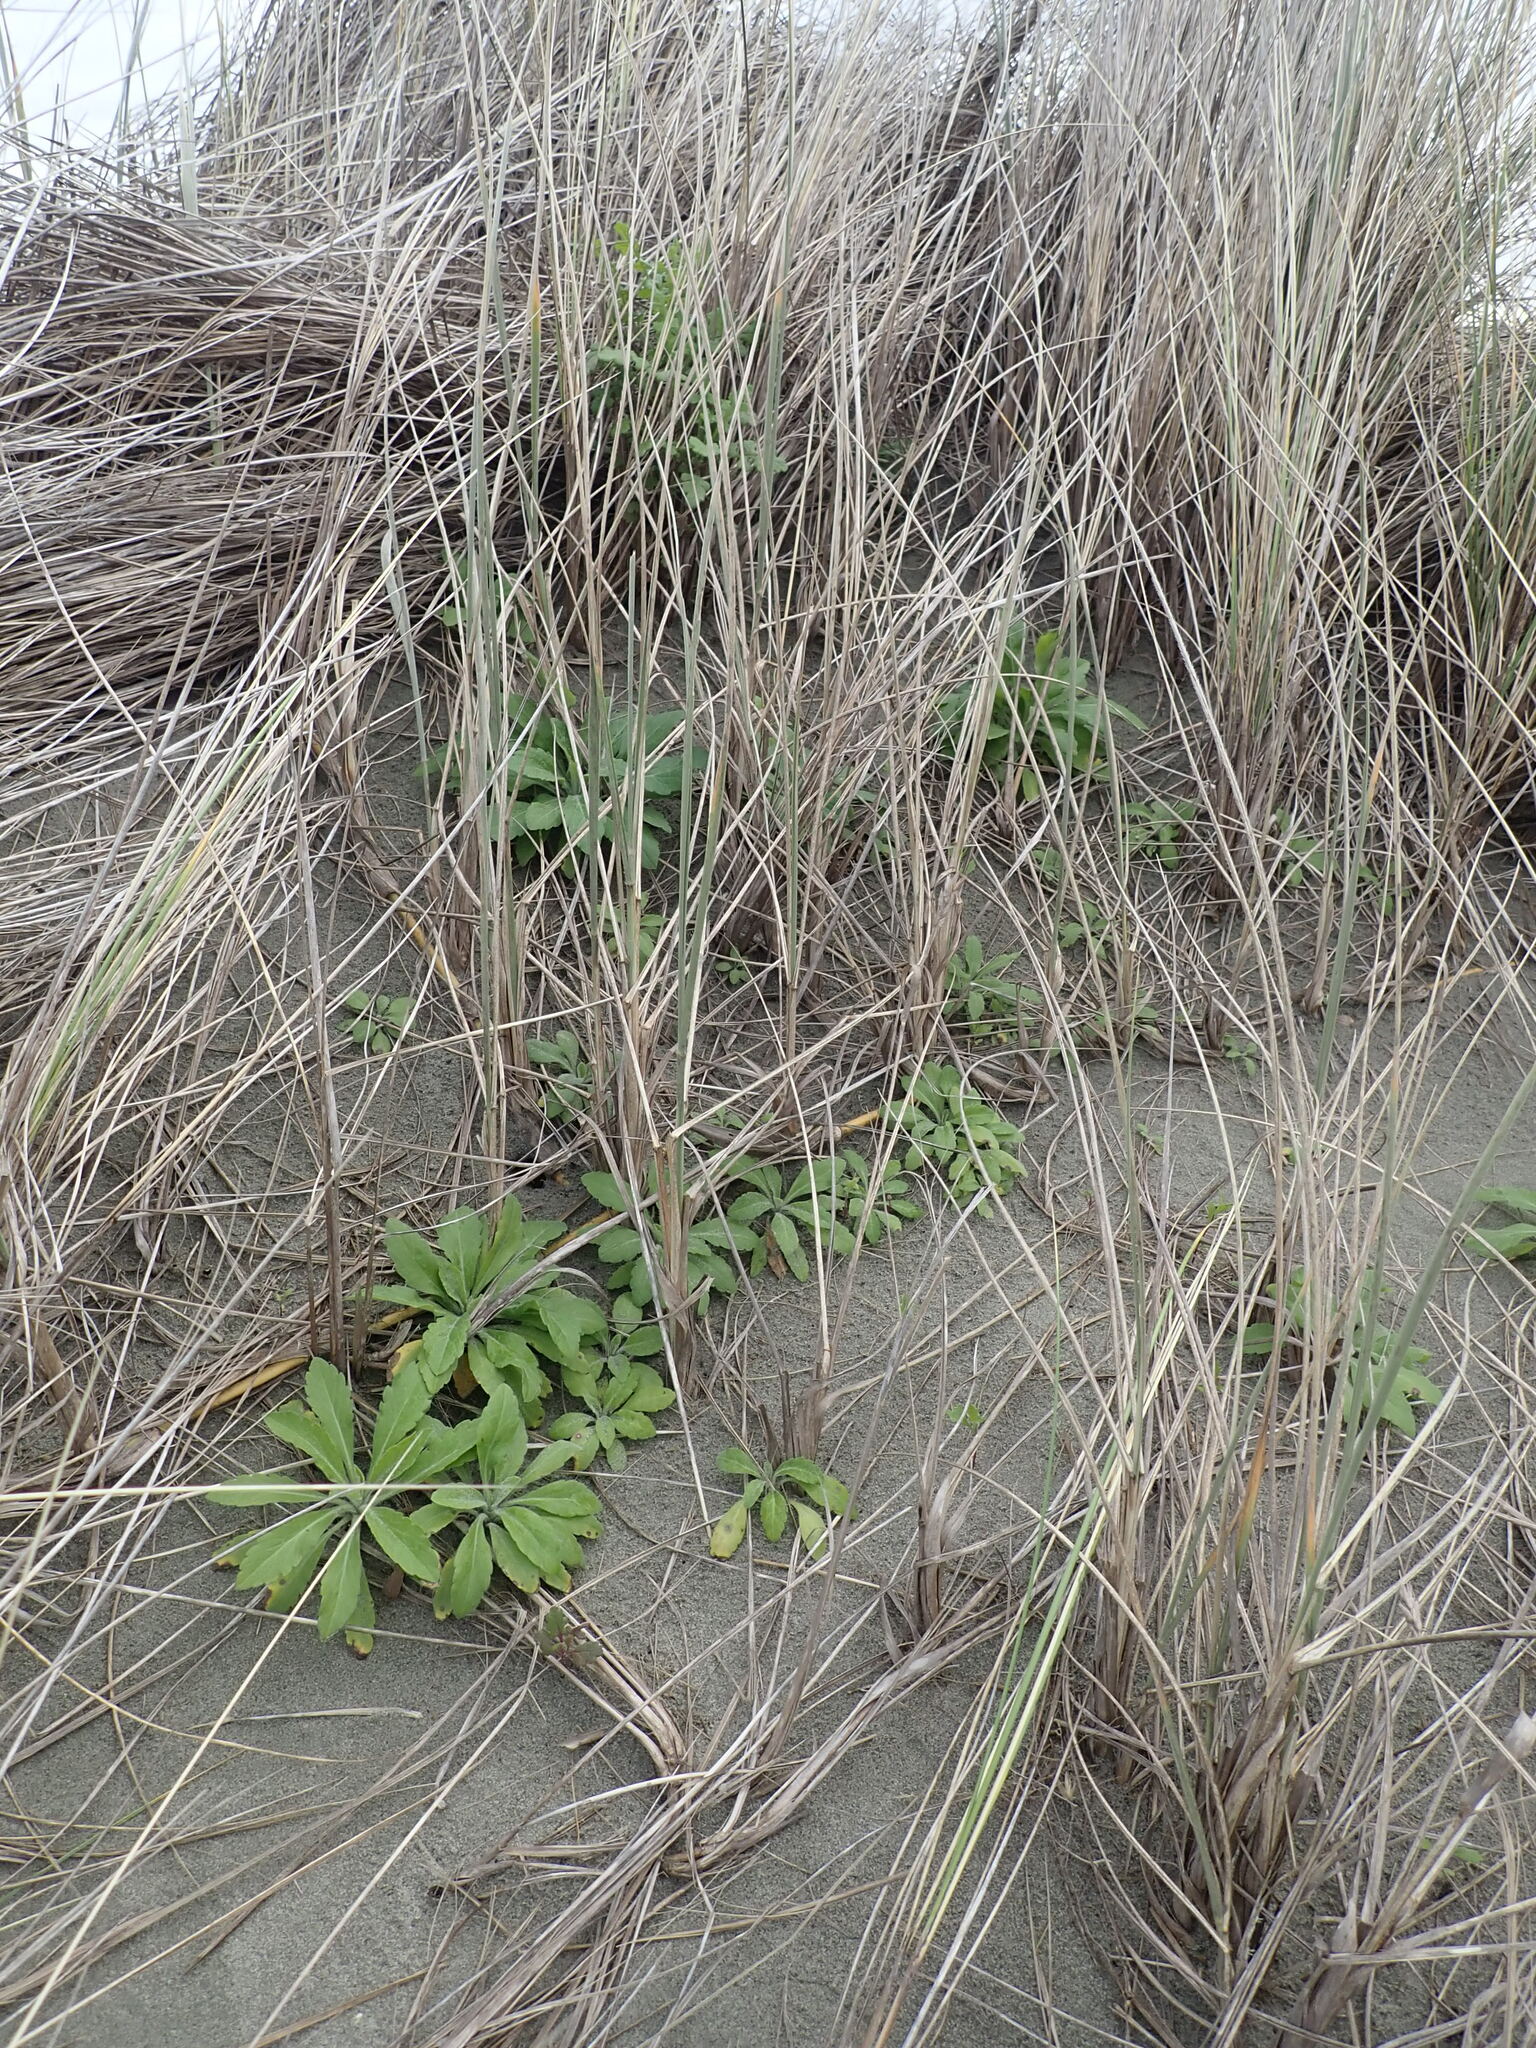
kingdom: Plantae
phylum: Tracheophyta
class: Magnoliopsida
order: Asterales
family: Asteraceae
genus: Erigeron
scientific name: Erigeron sumatrensis
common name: Daisy
